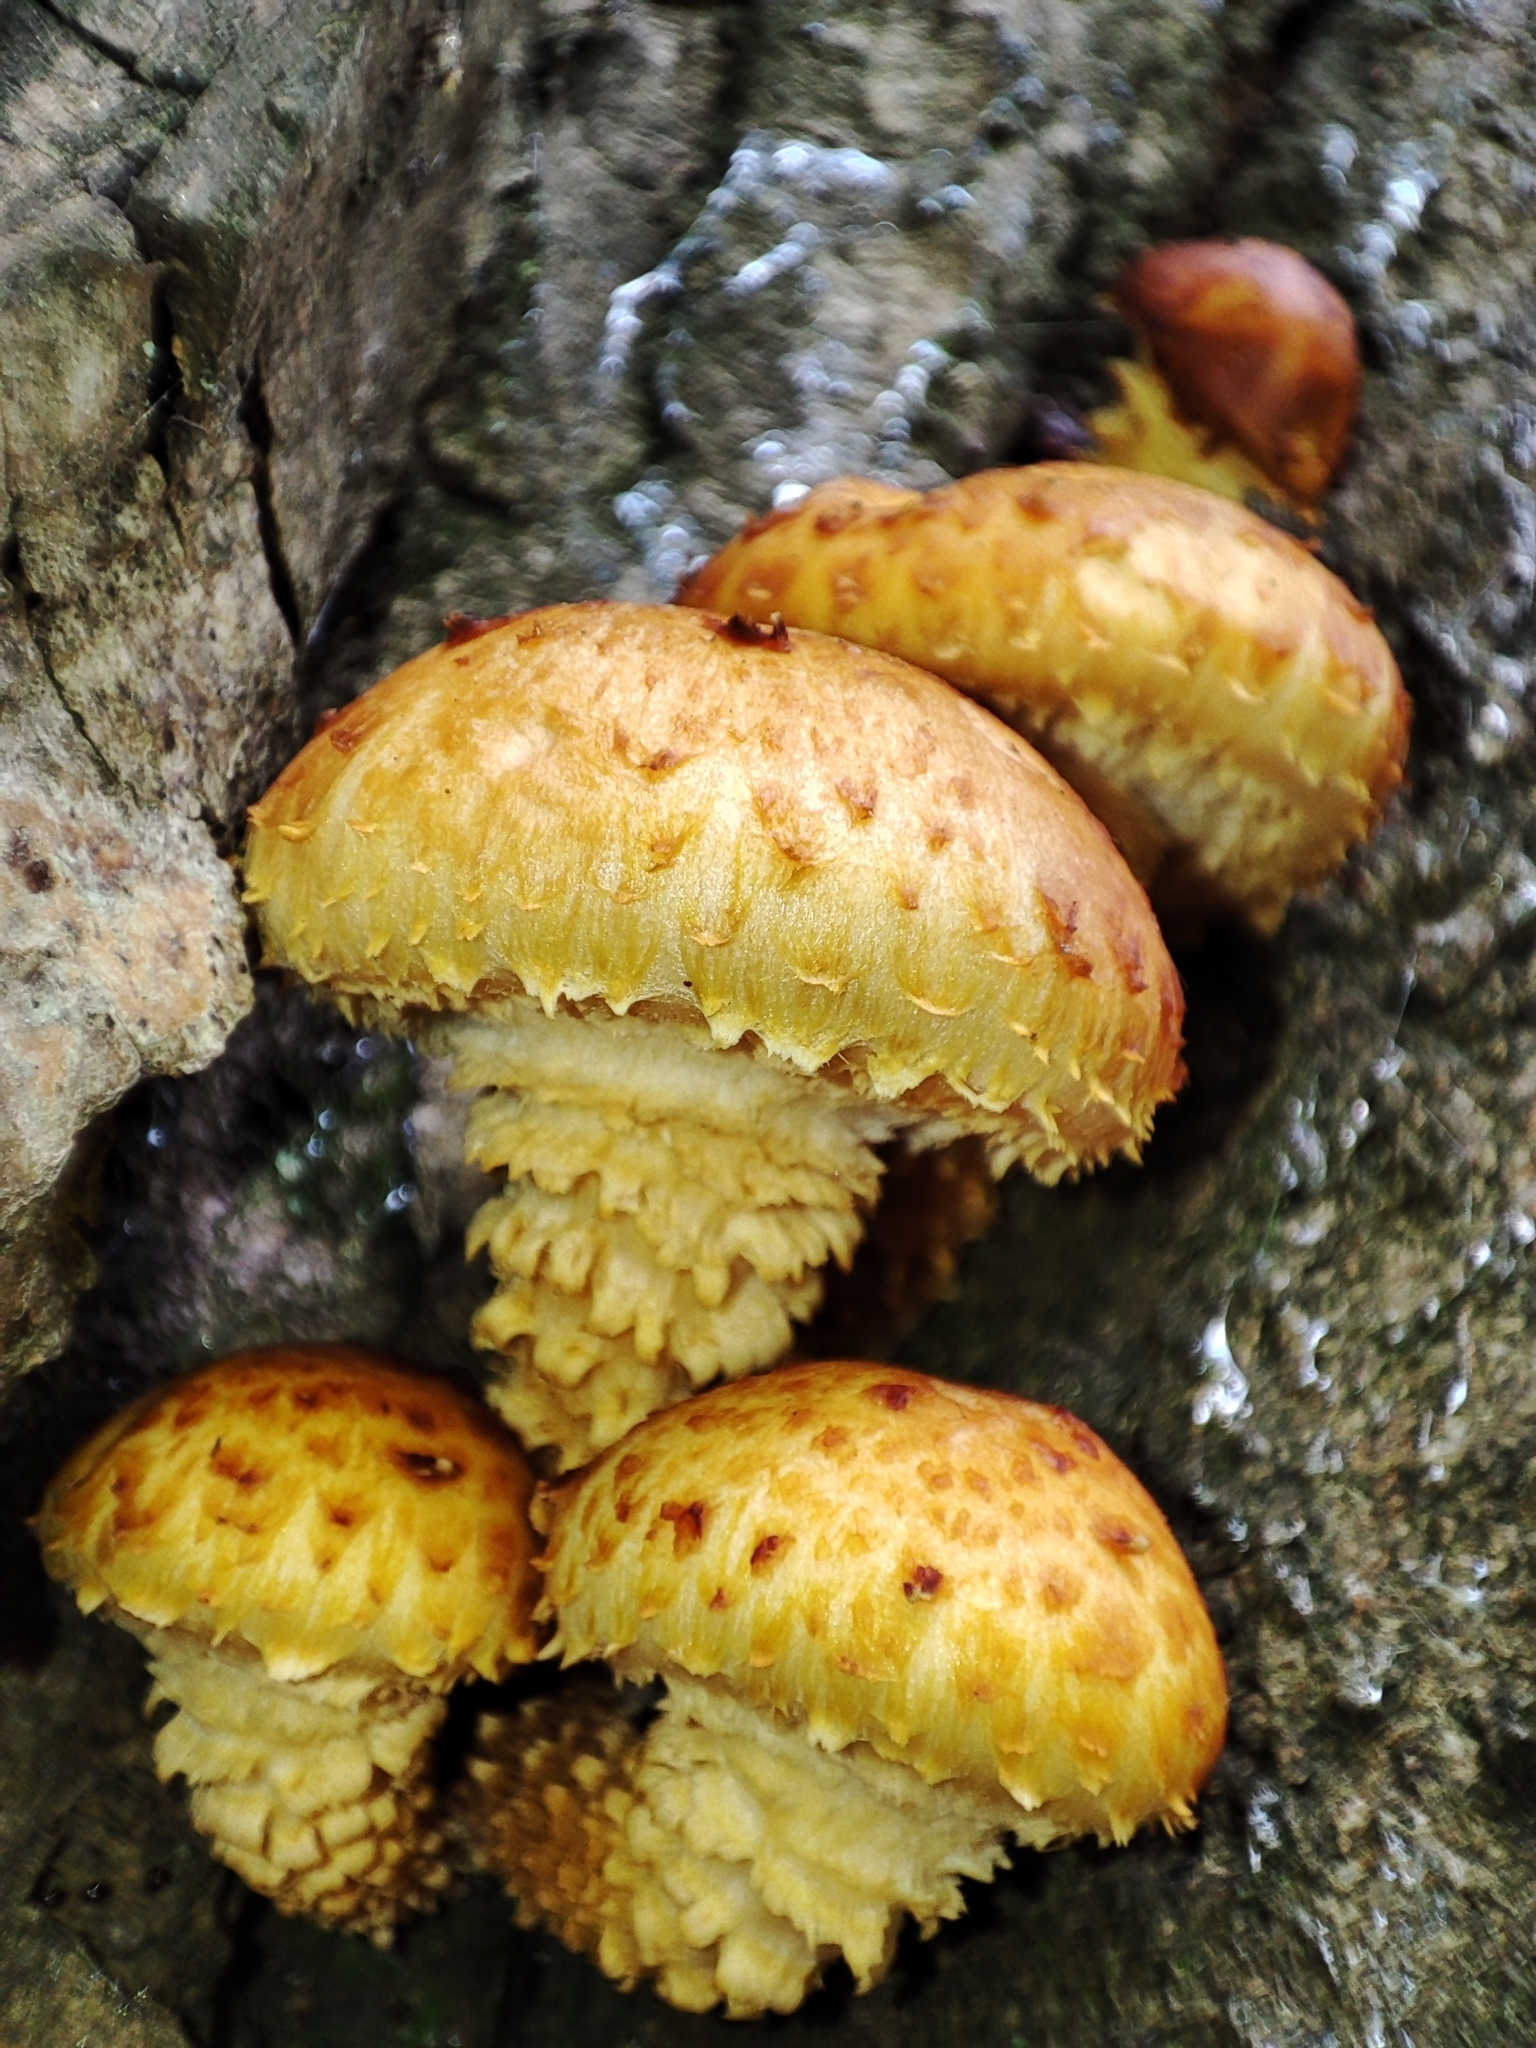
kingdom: Fungi
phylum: Basidiomycota
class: Agaricomycetes
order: Agaricales
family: Strophariaceae
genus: Pholiota
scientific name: Pholiota aurivella
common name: Golden scalycap
